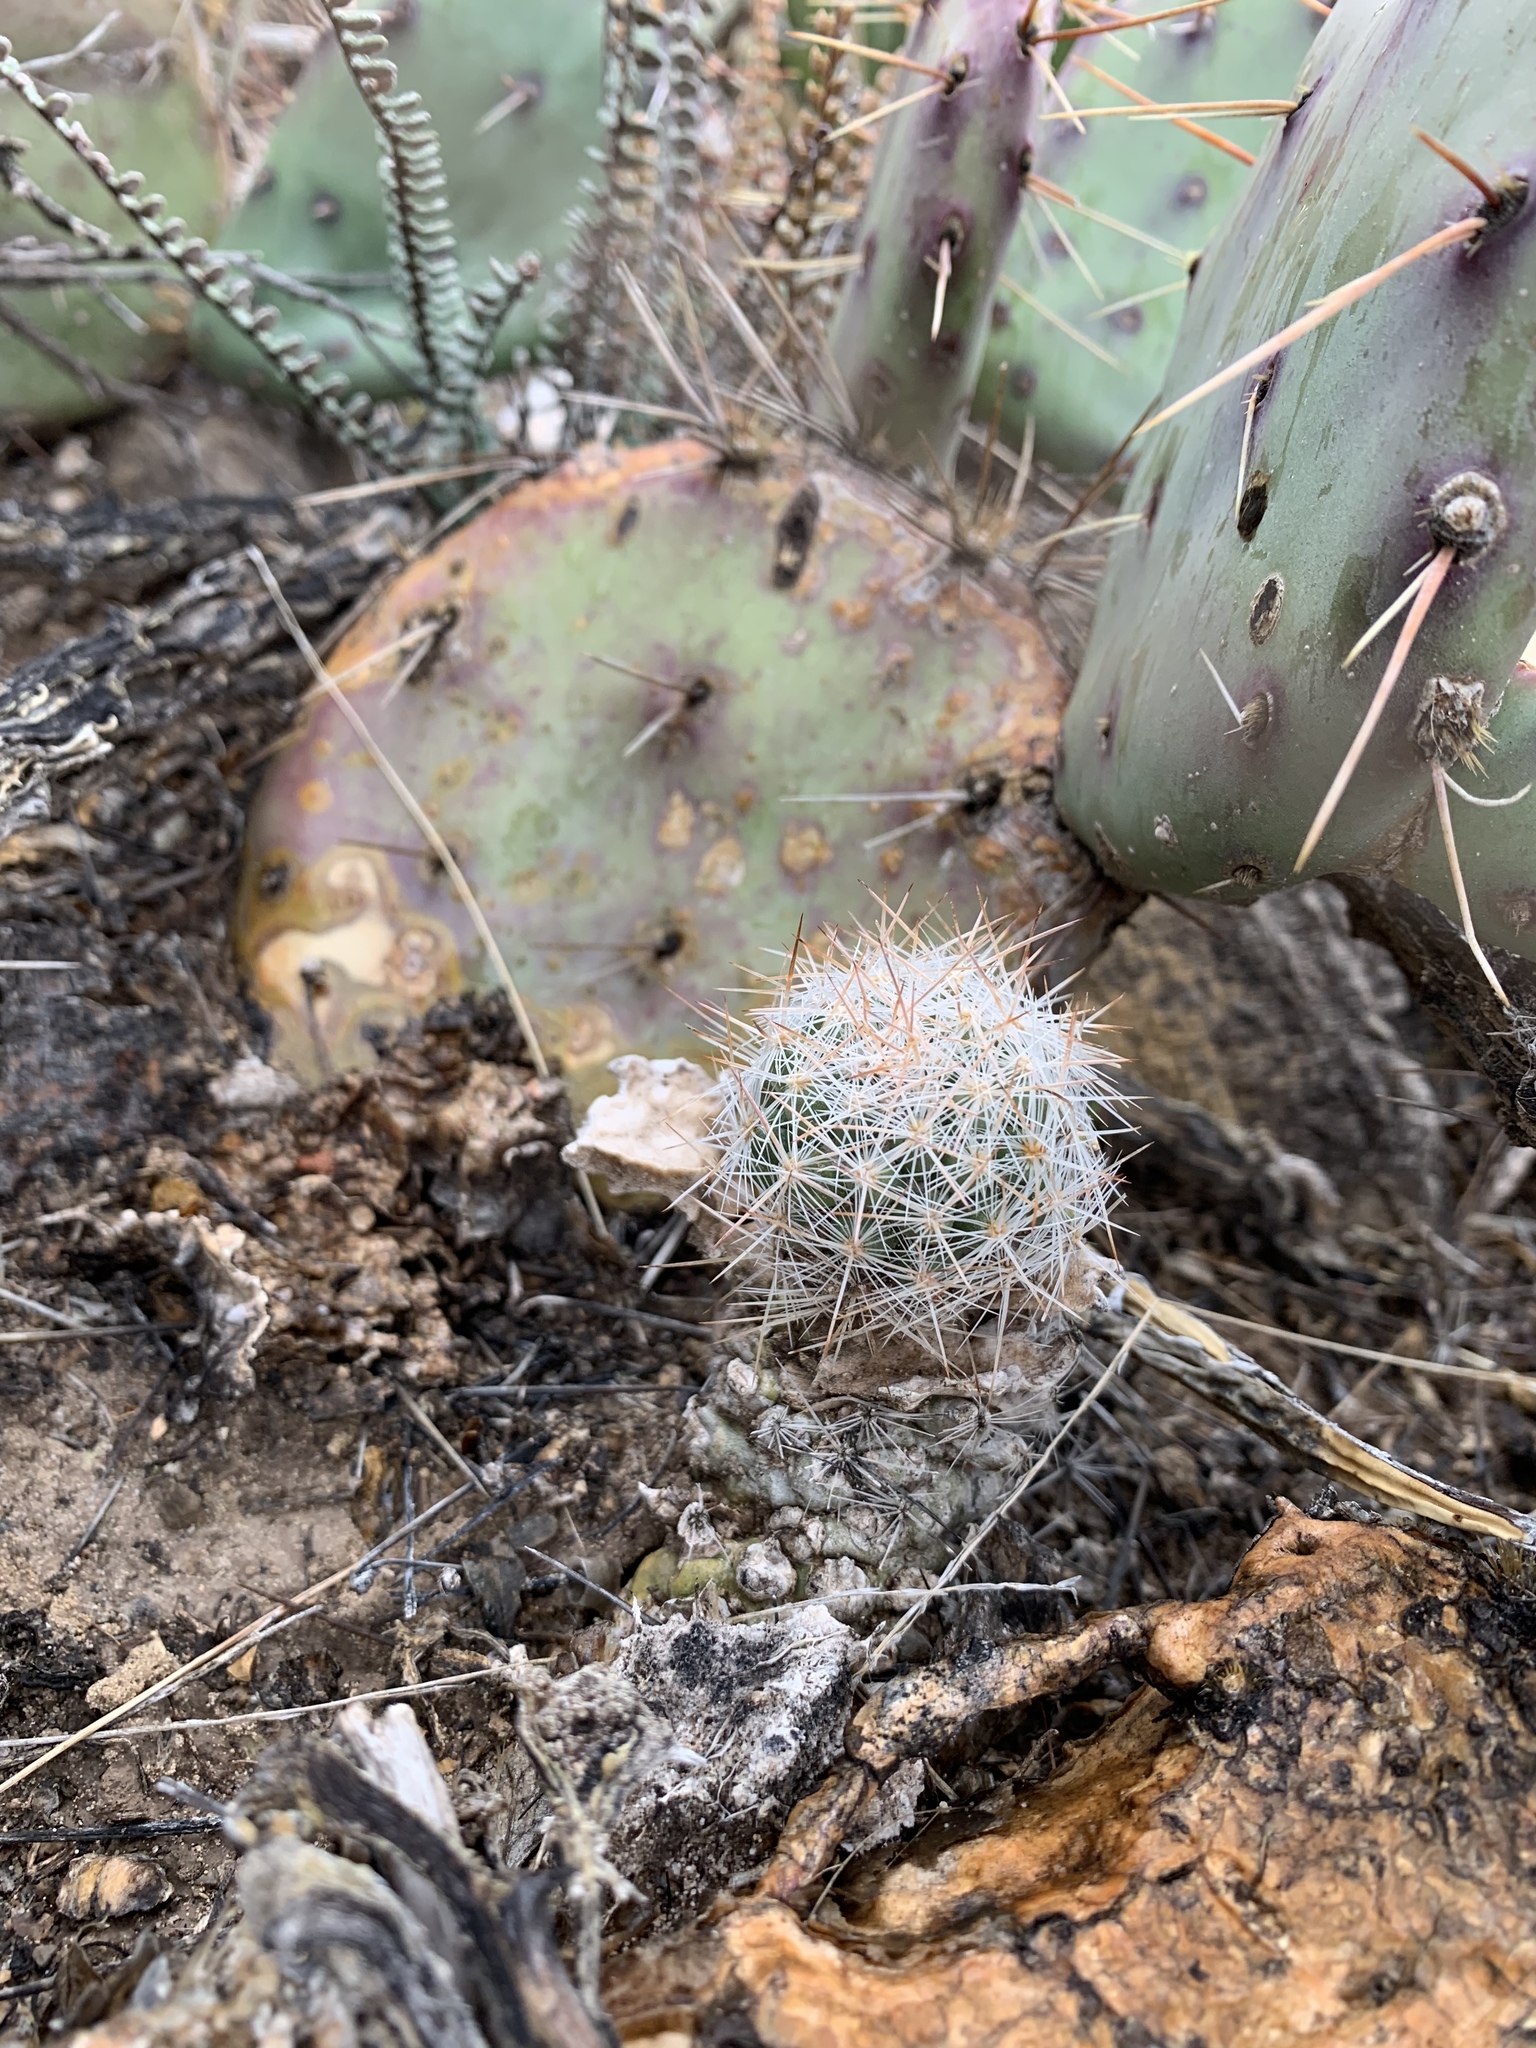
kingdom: Plantae
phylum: Tracheophyta
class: Magnoliopsida
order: Caryophyllales
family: Cactaceae
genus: Pelecyphora
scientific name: Pelecyphora tuberculosa
